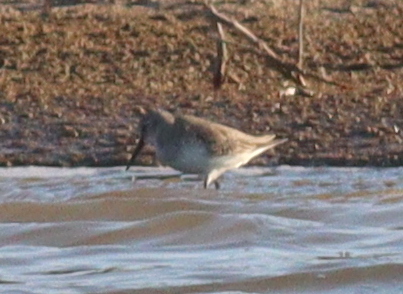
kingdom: Animalia
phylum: Chordata
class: Aves
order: Charadriiformes
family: Scolopacidae
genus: Calidris
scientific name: Calidris alpina
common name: Dunlin
